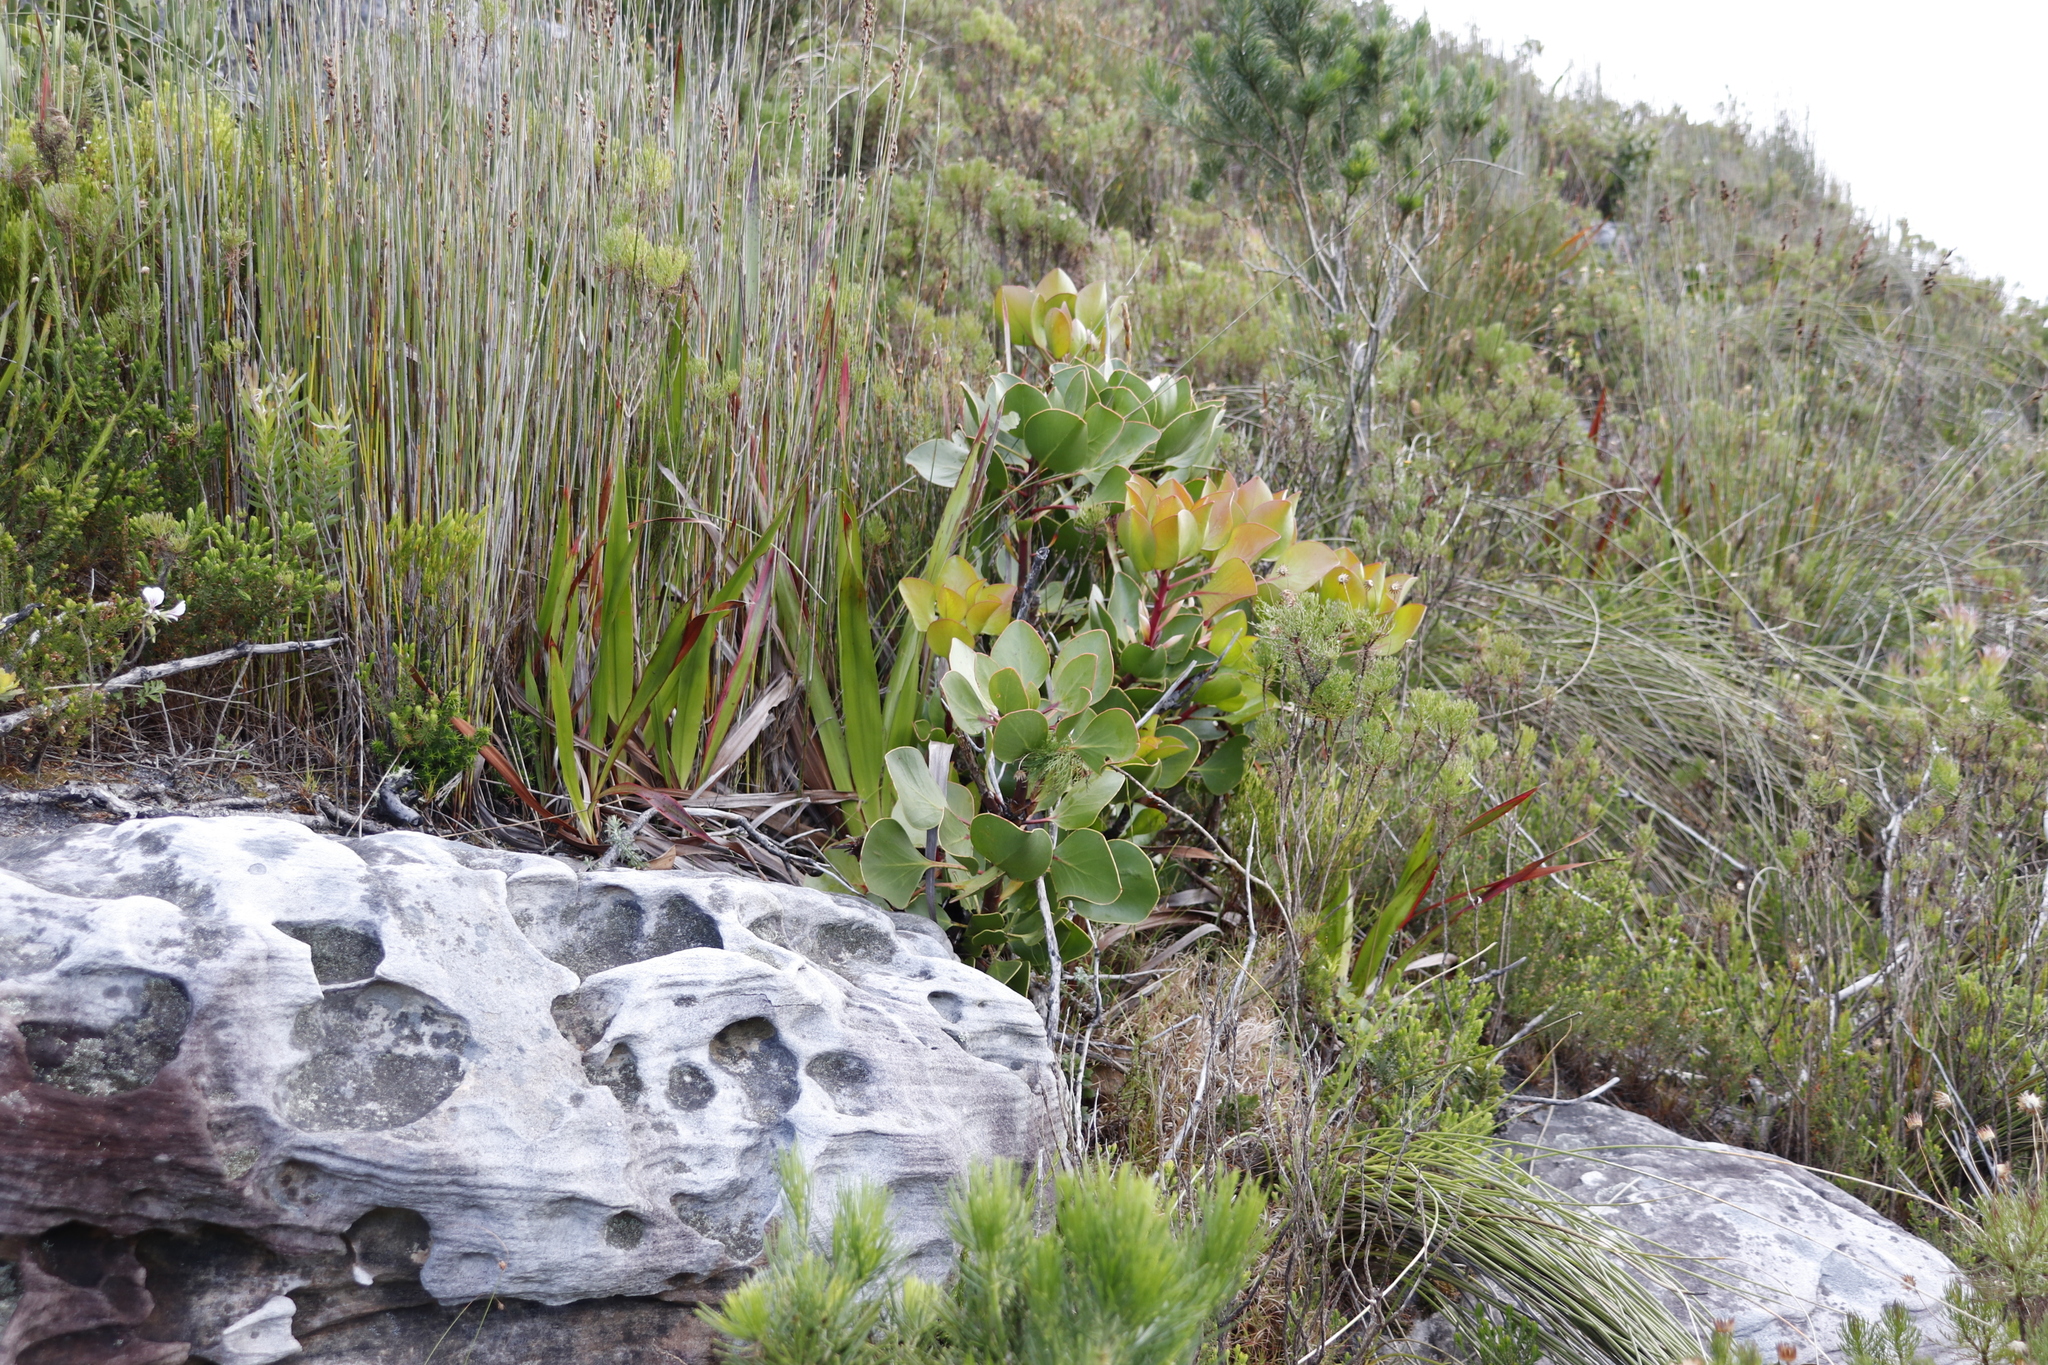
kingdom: Plantae
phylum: Tracheophyta
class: Magnoliopsida
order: Proteales
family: Proteaceae
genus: Protea
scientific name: Protea cynaroides
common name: King protea
